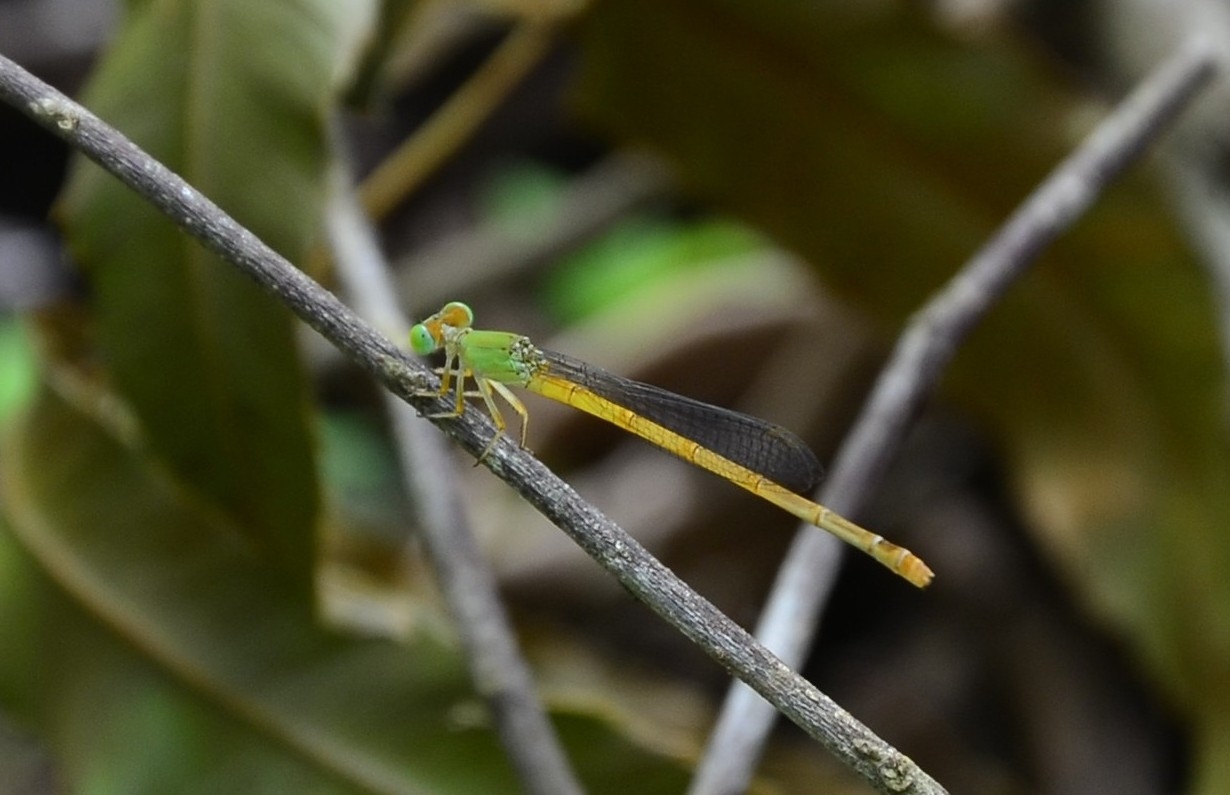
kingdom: Animalia
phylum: Arthropoda
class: Insecta
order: Odonata
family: Coenagrionidae
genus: Ceriagrion
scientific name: Ceriagrion coromandelianum
